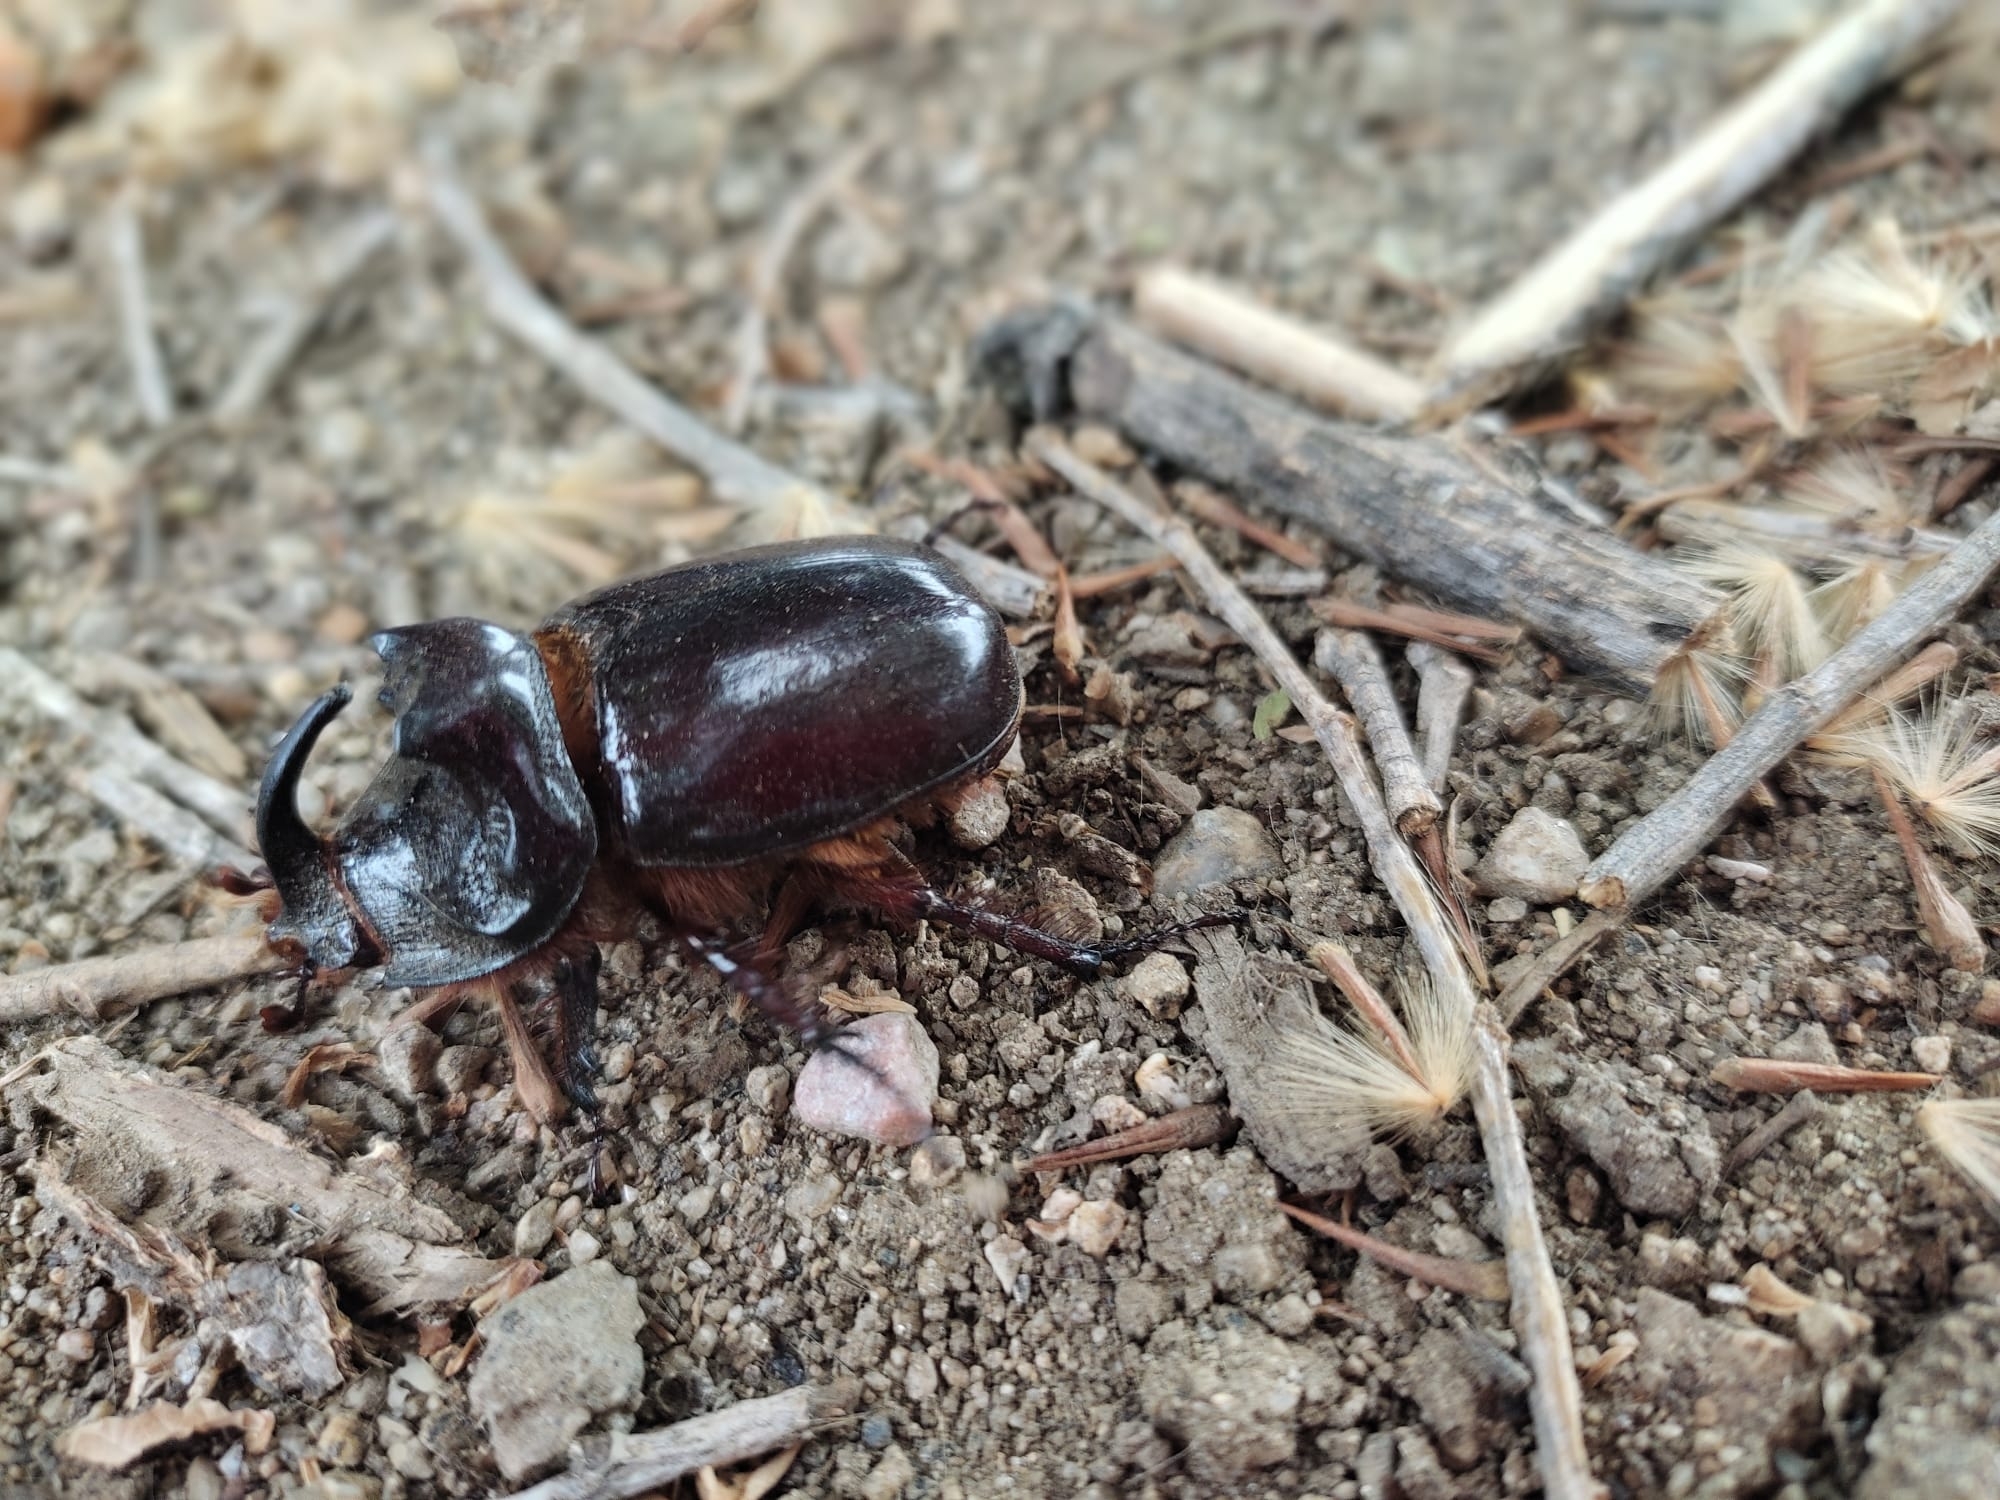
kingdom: Animalia
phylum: Arthropoda
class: Insecta
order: Coleoptera
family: Scarabaeidae
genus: Oryctes
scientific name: Oryctes nasicornis
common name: European rhinoceros beetle
